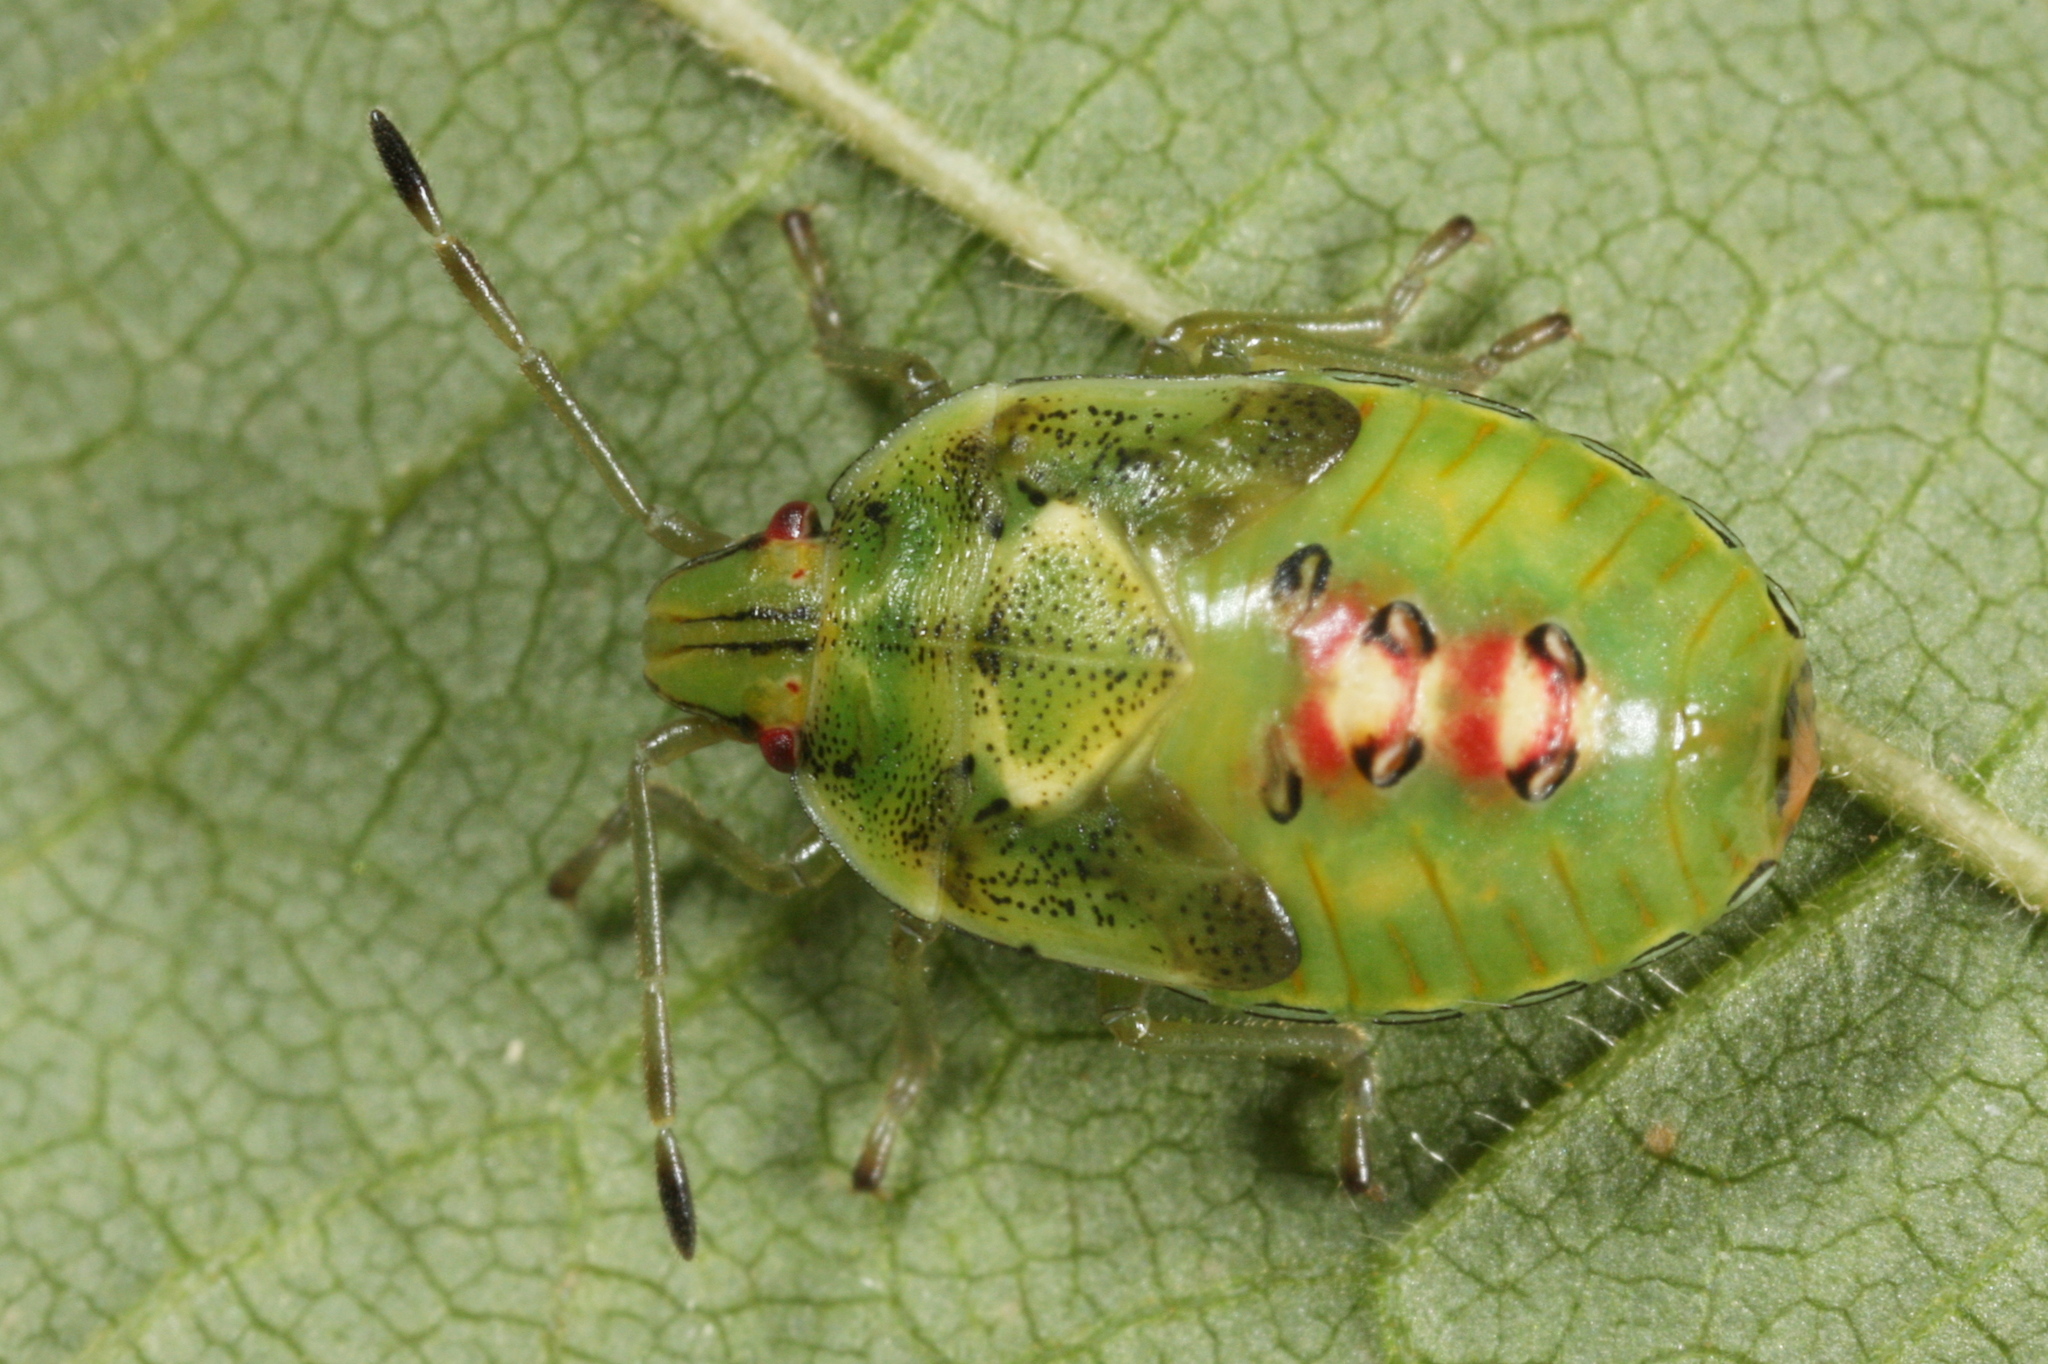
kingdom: Animalia
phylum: Arthropoda
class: Insecta
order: Hemiptera
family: Acanthosomatidae
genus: Cyphostethus
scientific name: Cyphostethus tristriatus
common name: Juniper shieldbug
